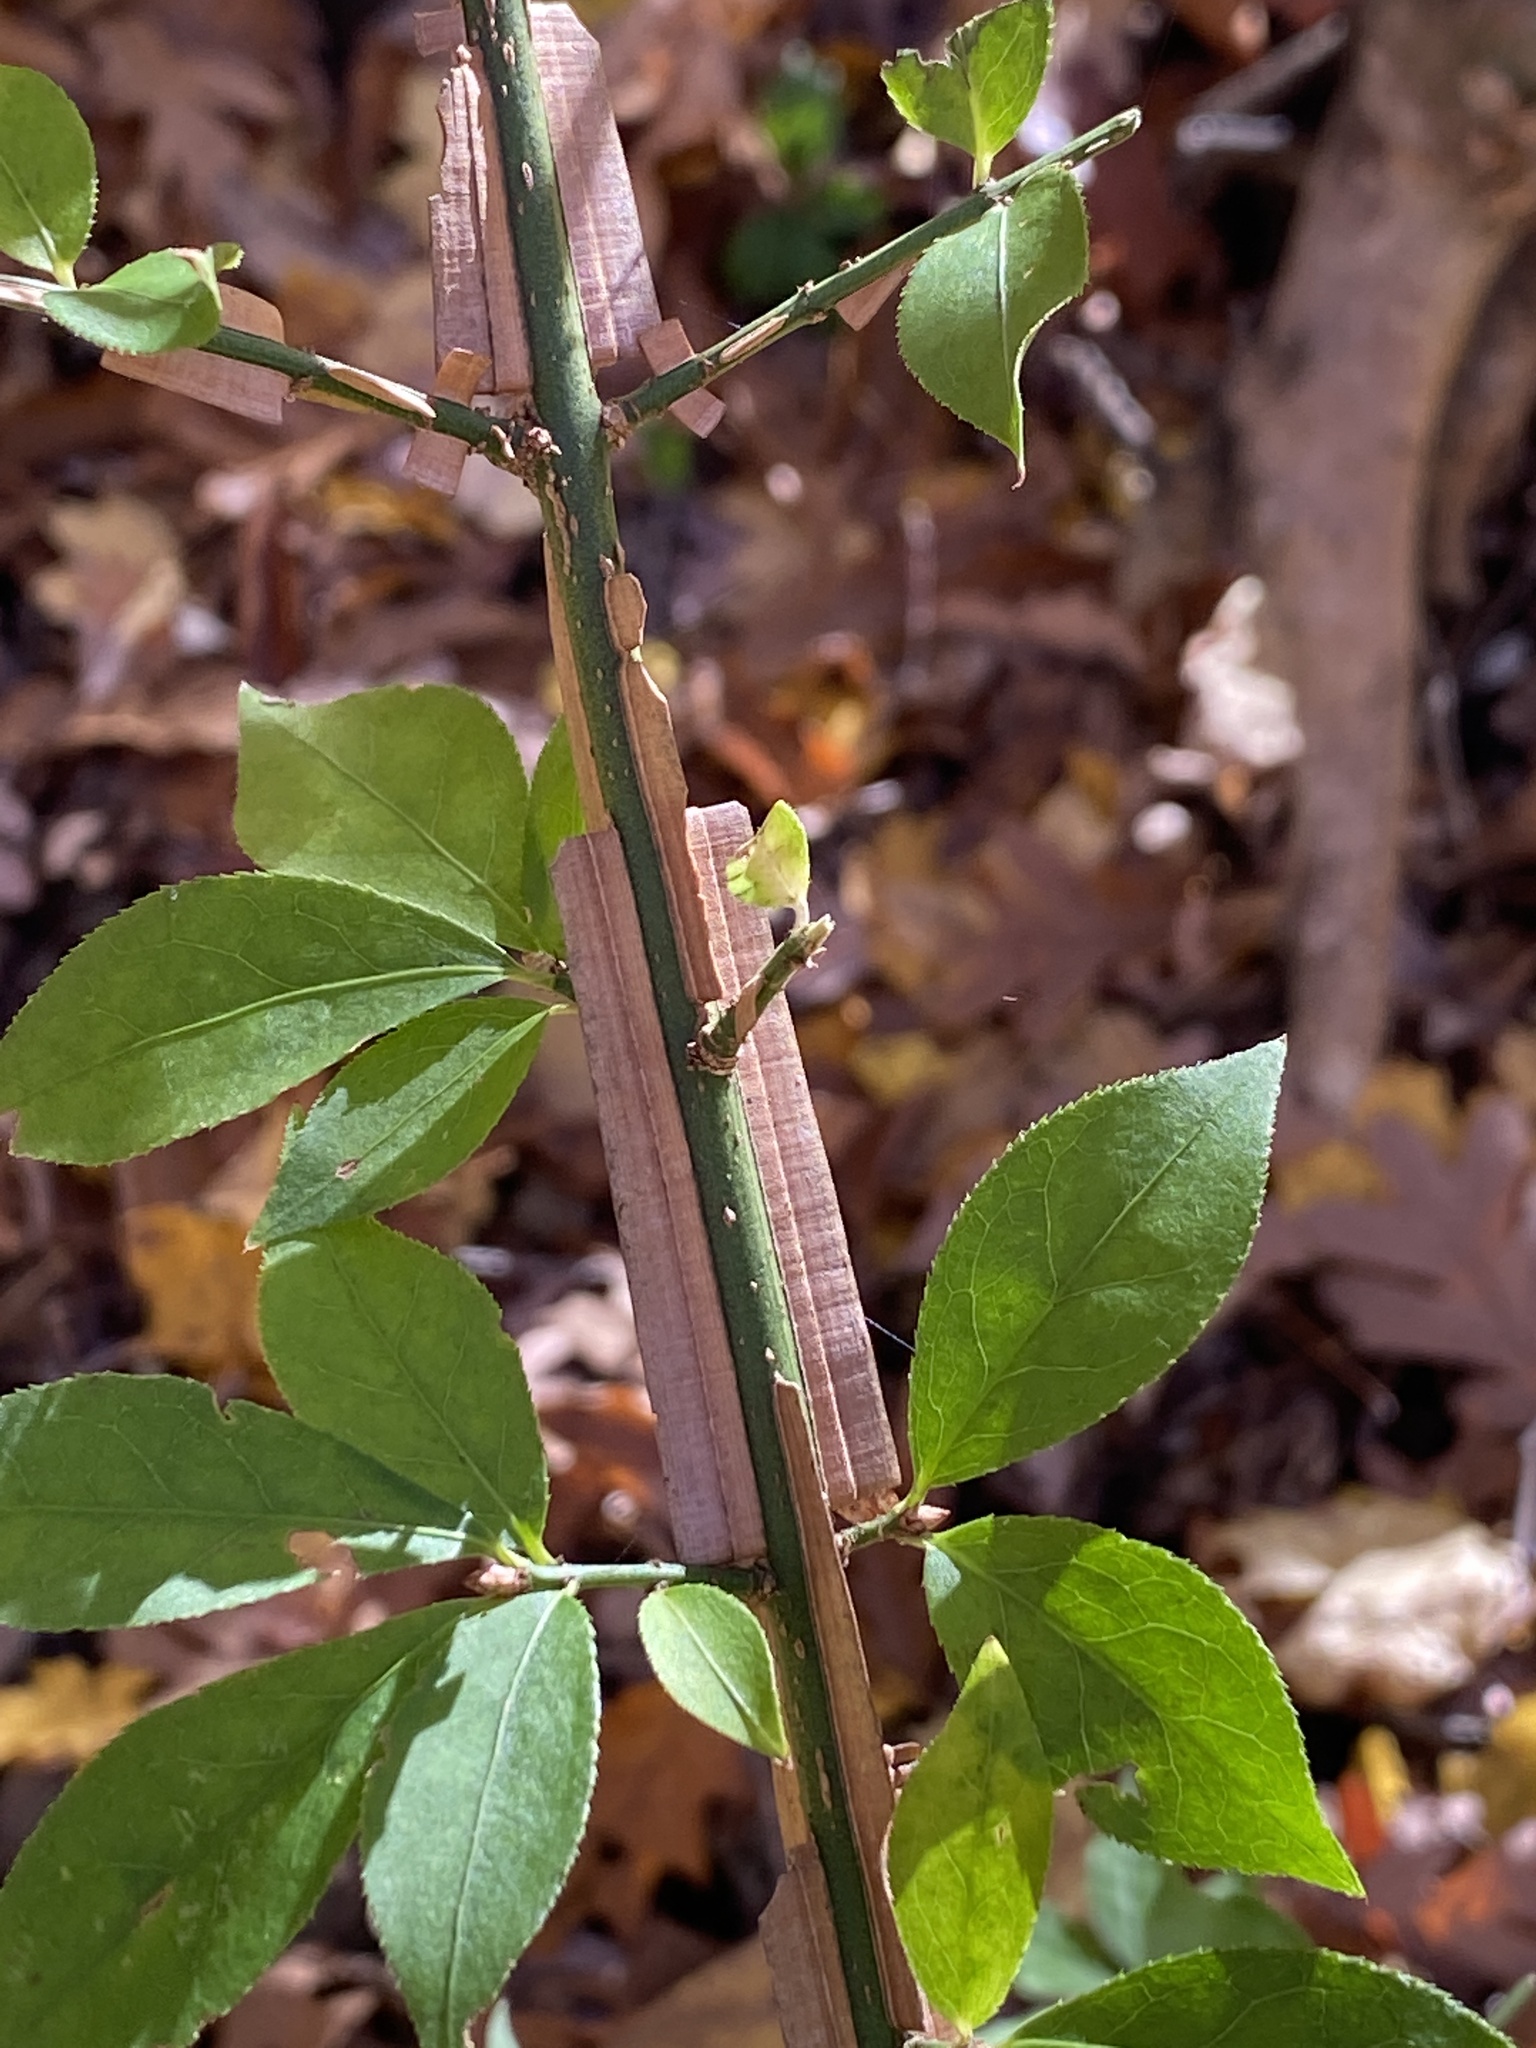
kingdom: Plantae
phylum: Tracheophyta
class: Magnoliopsida
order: Celastrales
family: Celastraceae
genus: Euonymus
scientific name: Euonymus alatus
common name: Winged euonymus
